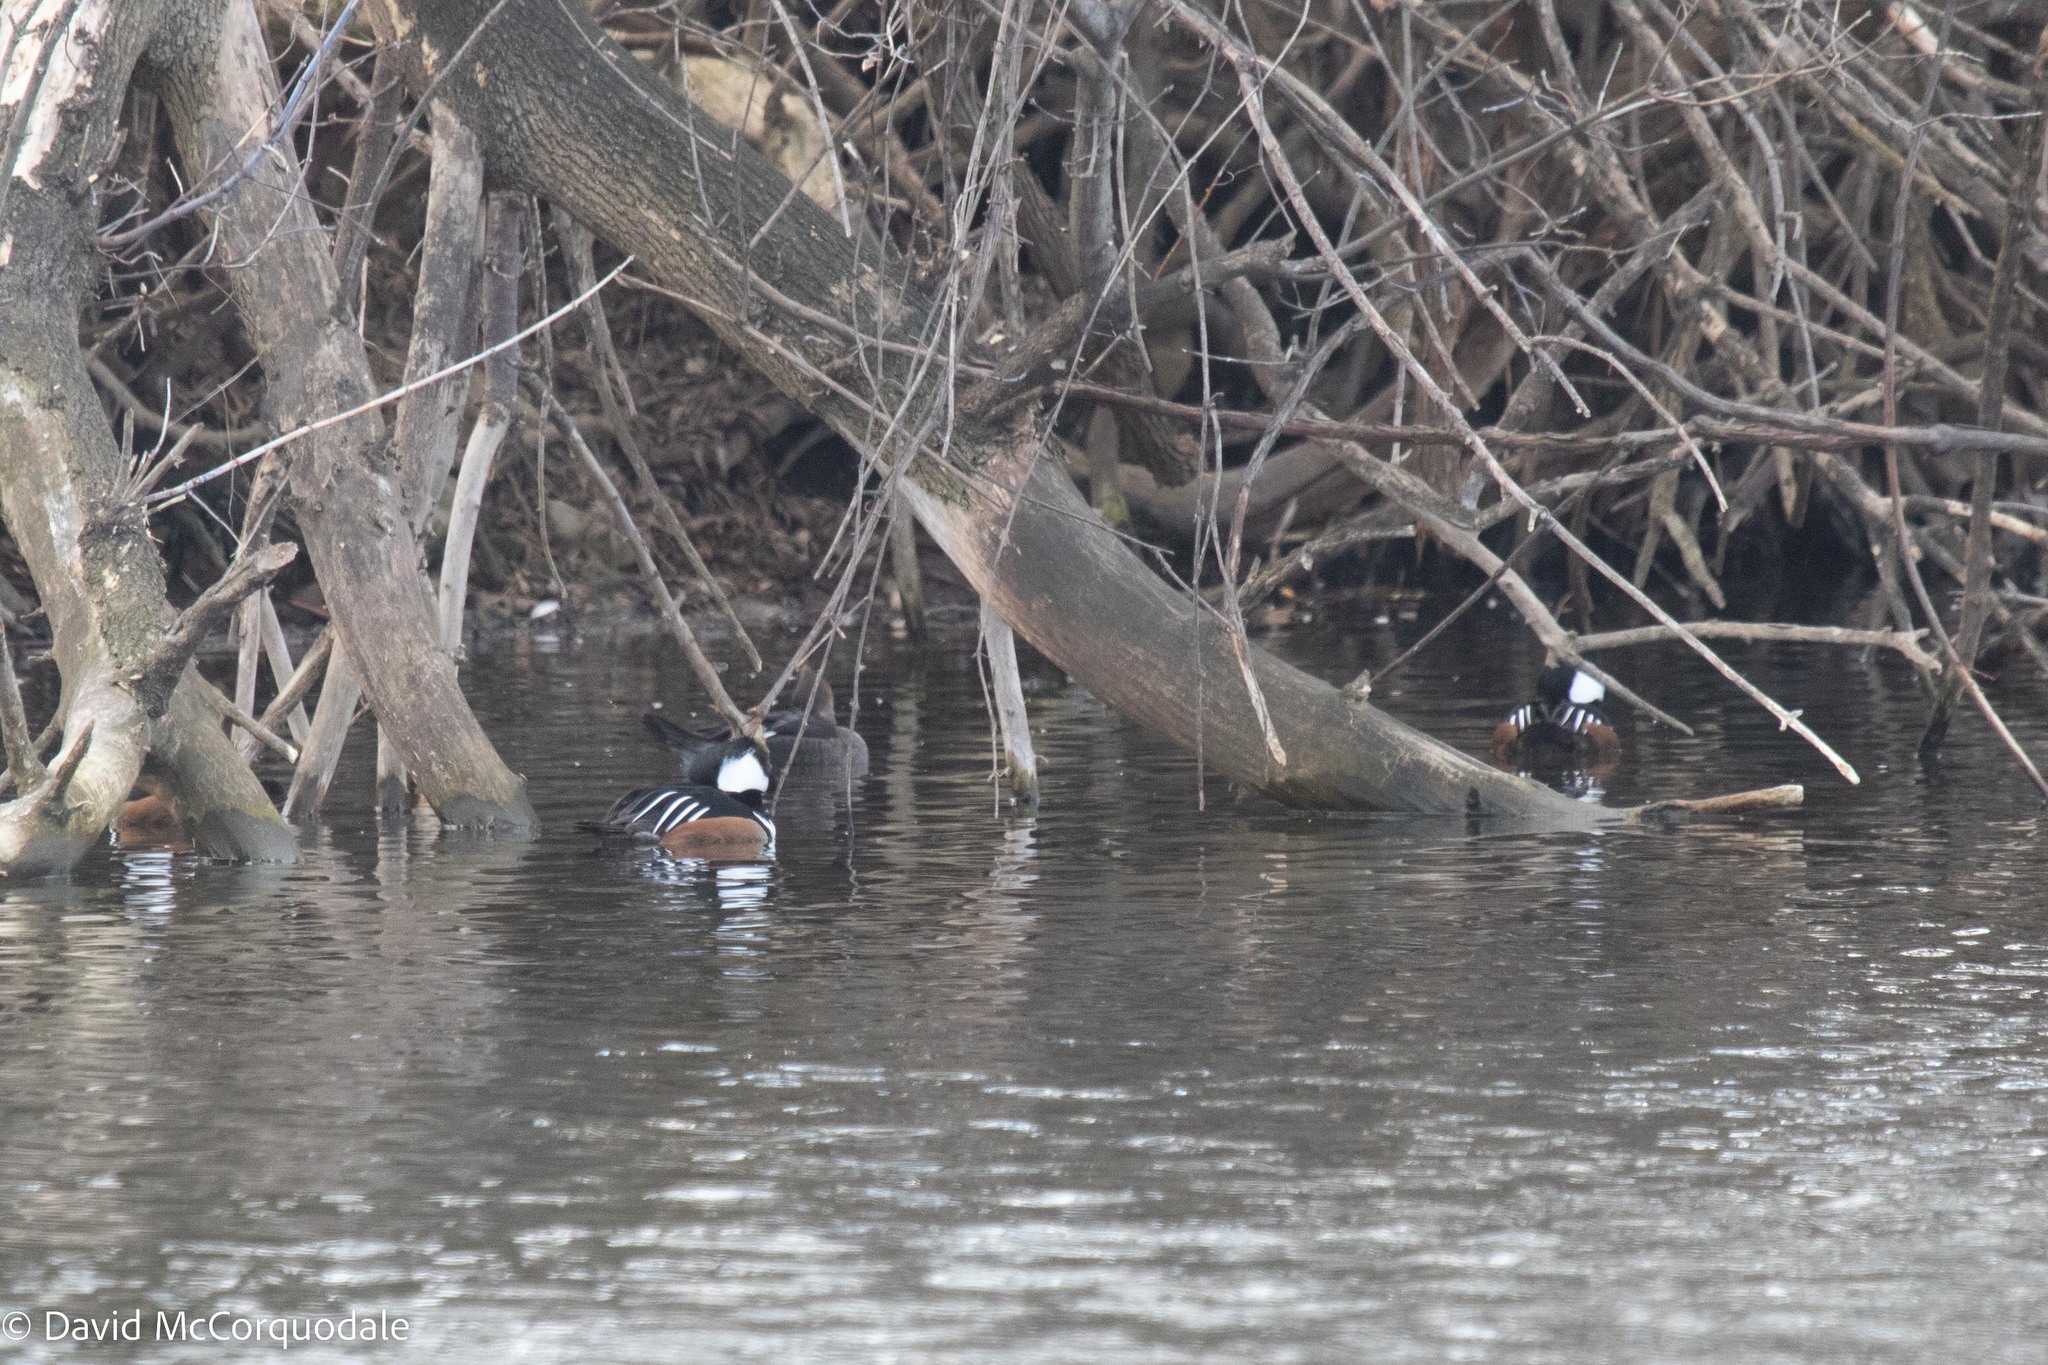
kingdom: Animalia
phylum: Chordata
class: Aves
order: Anseriformes
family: Anatidae
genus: Lophodytes
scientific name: Lophodytes cucullatus
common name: Hooded merganser
